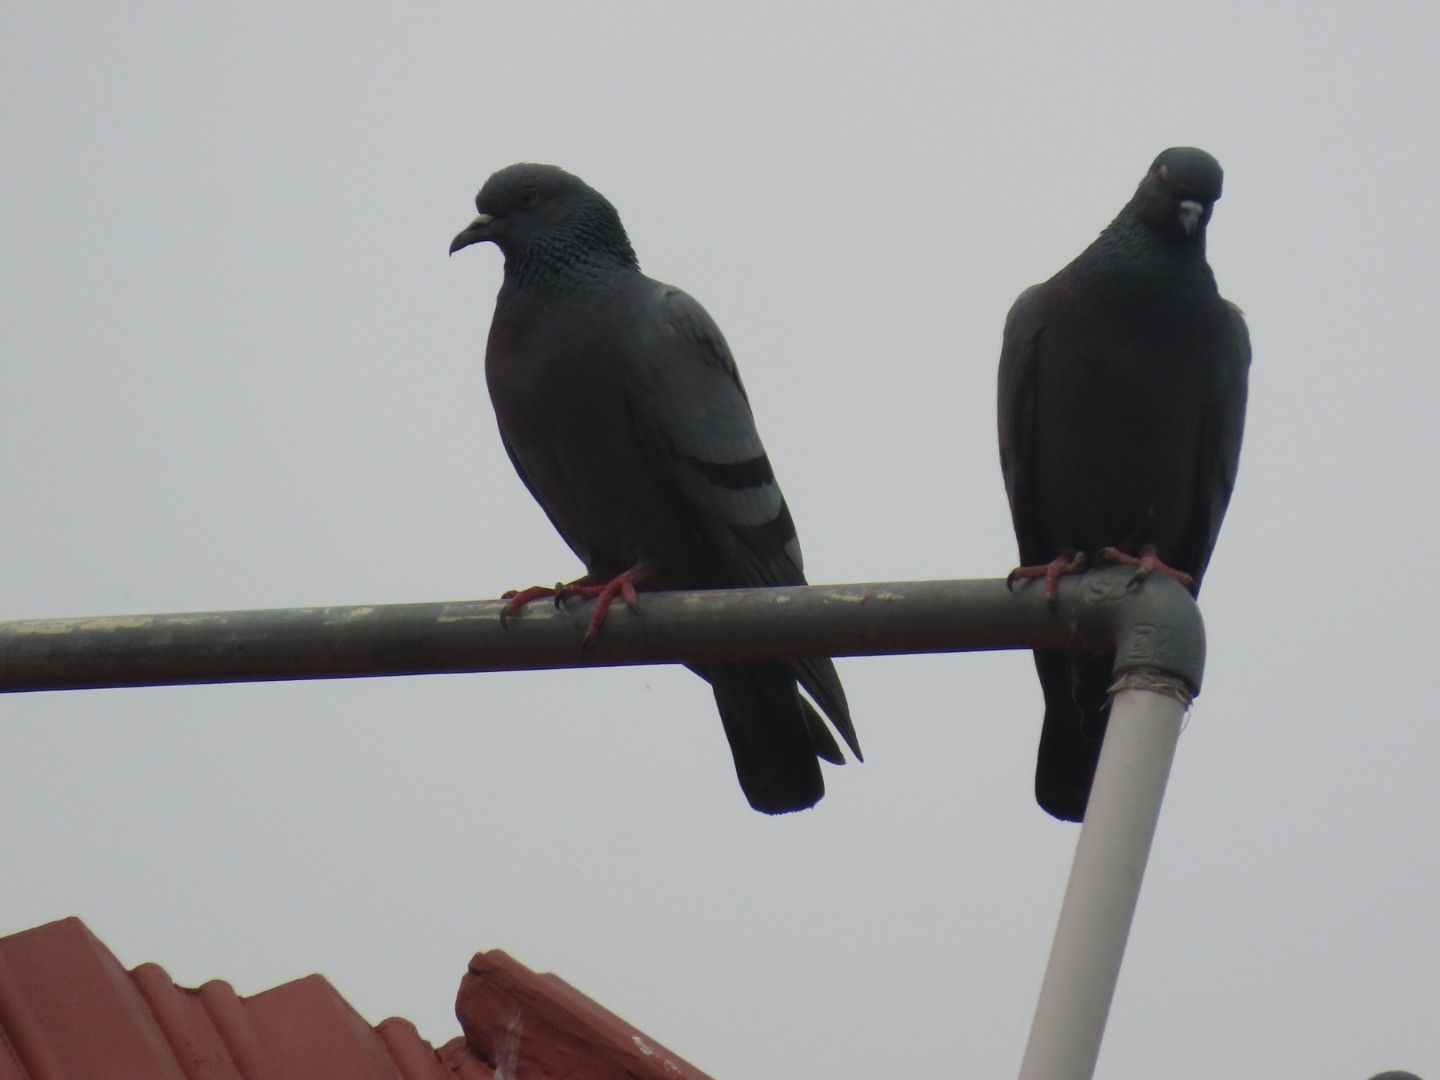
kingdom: Animalia
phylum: Chordata
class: Aves
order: Columbiformes
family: Columbidae
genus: Columba
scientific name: Columba livia
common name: Rock pigeon
